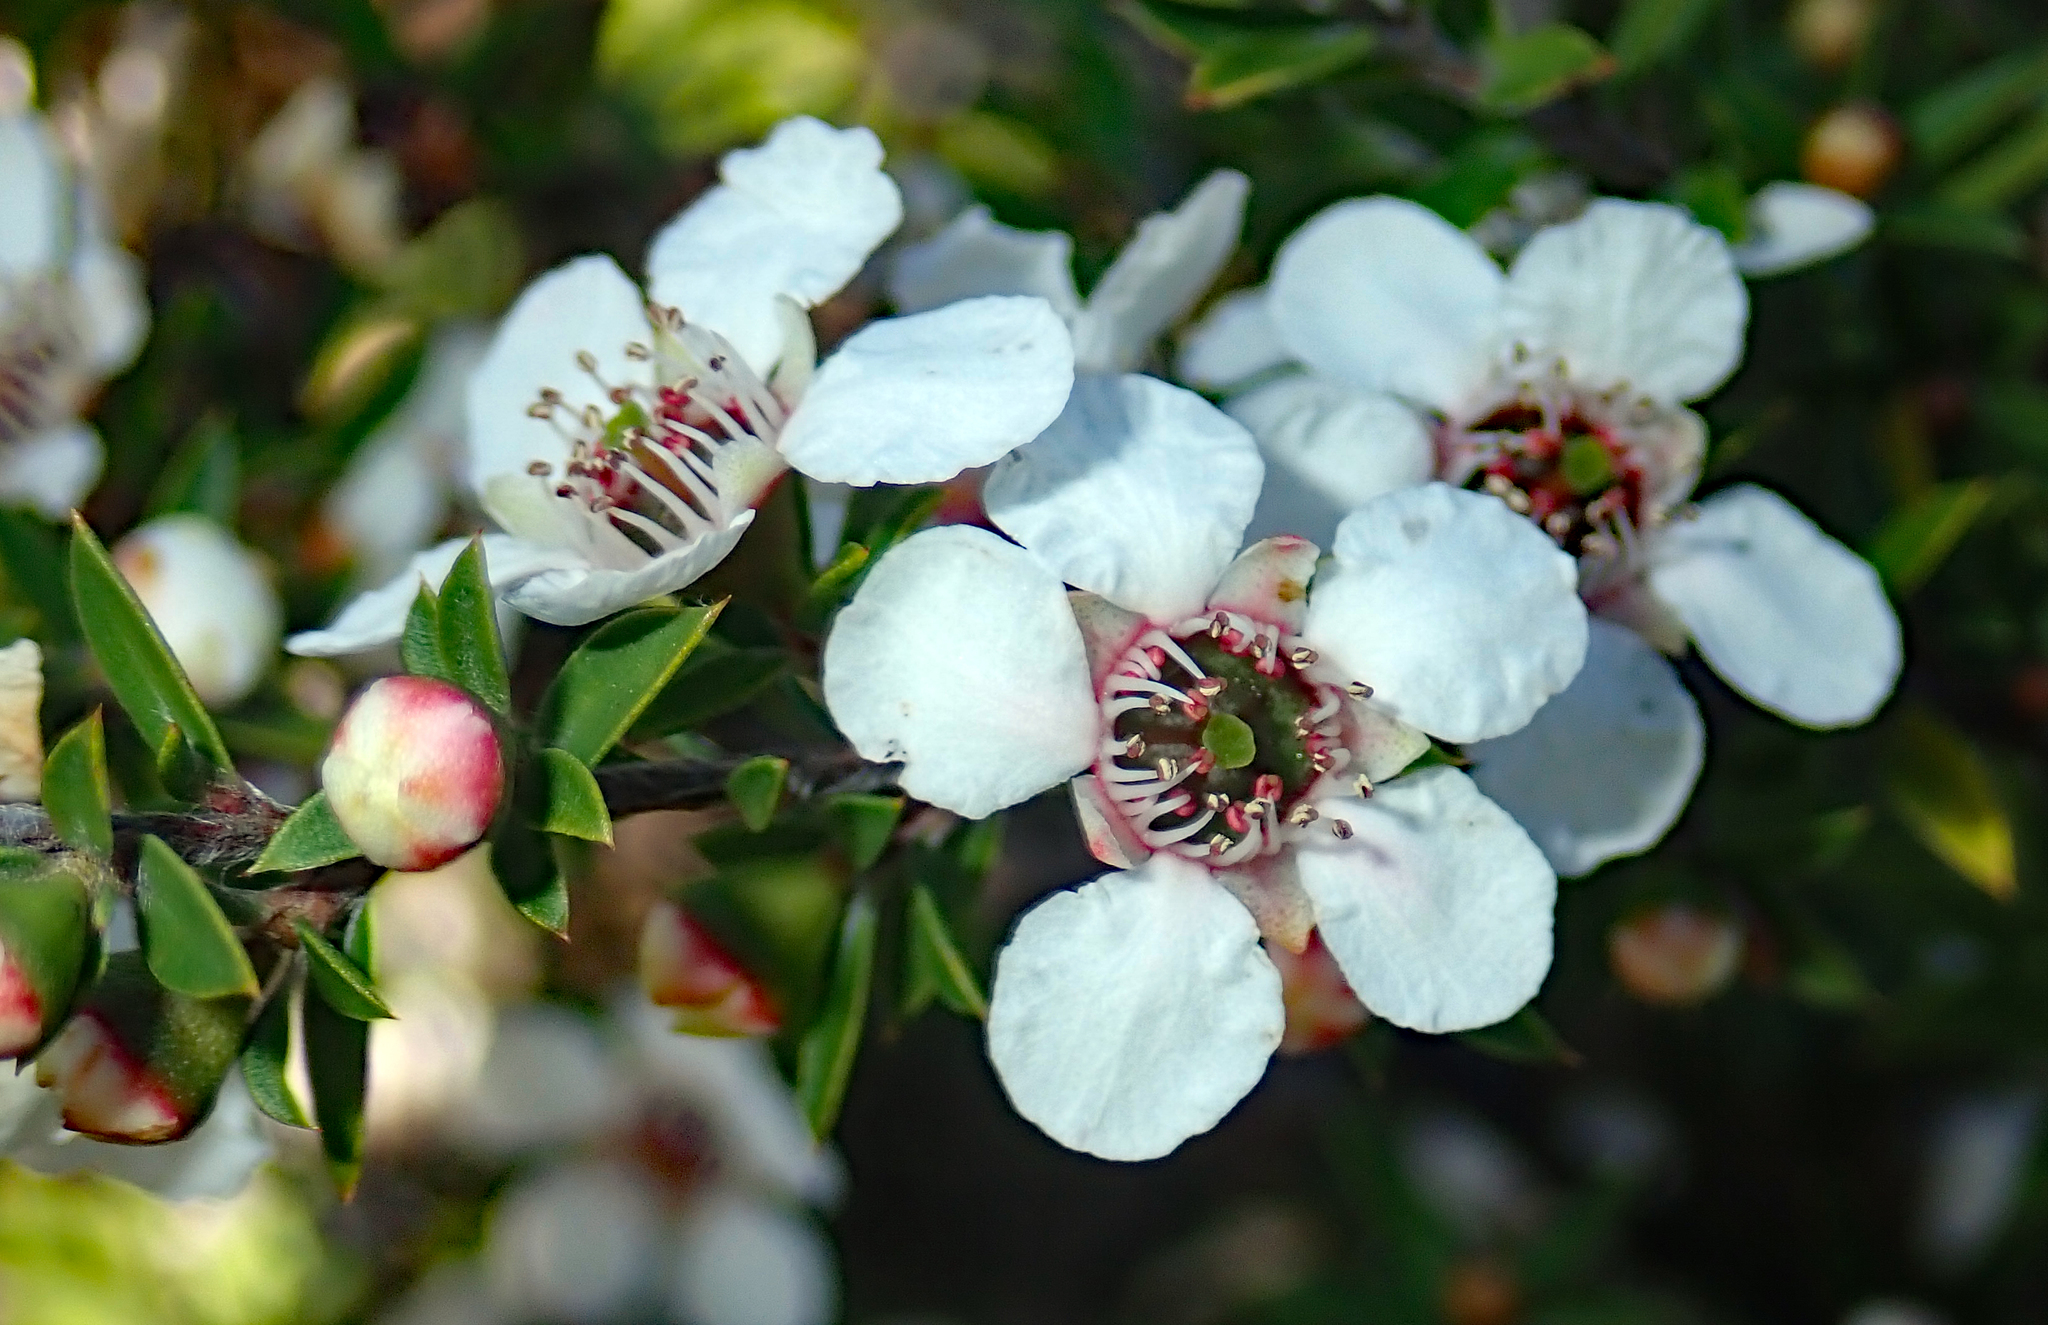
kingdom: Plantae
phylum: Tracheophyta
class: Magnoliopsida
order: Myrtales
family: Myrtaceae
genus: Leptospermum
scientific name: Leptospermum scoparium
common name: Broom tea-tree
